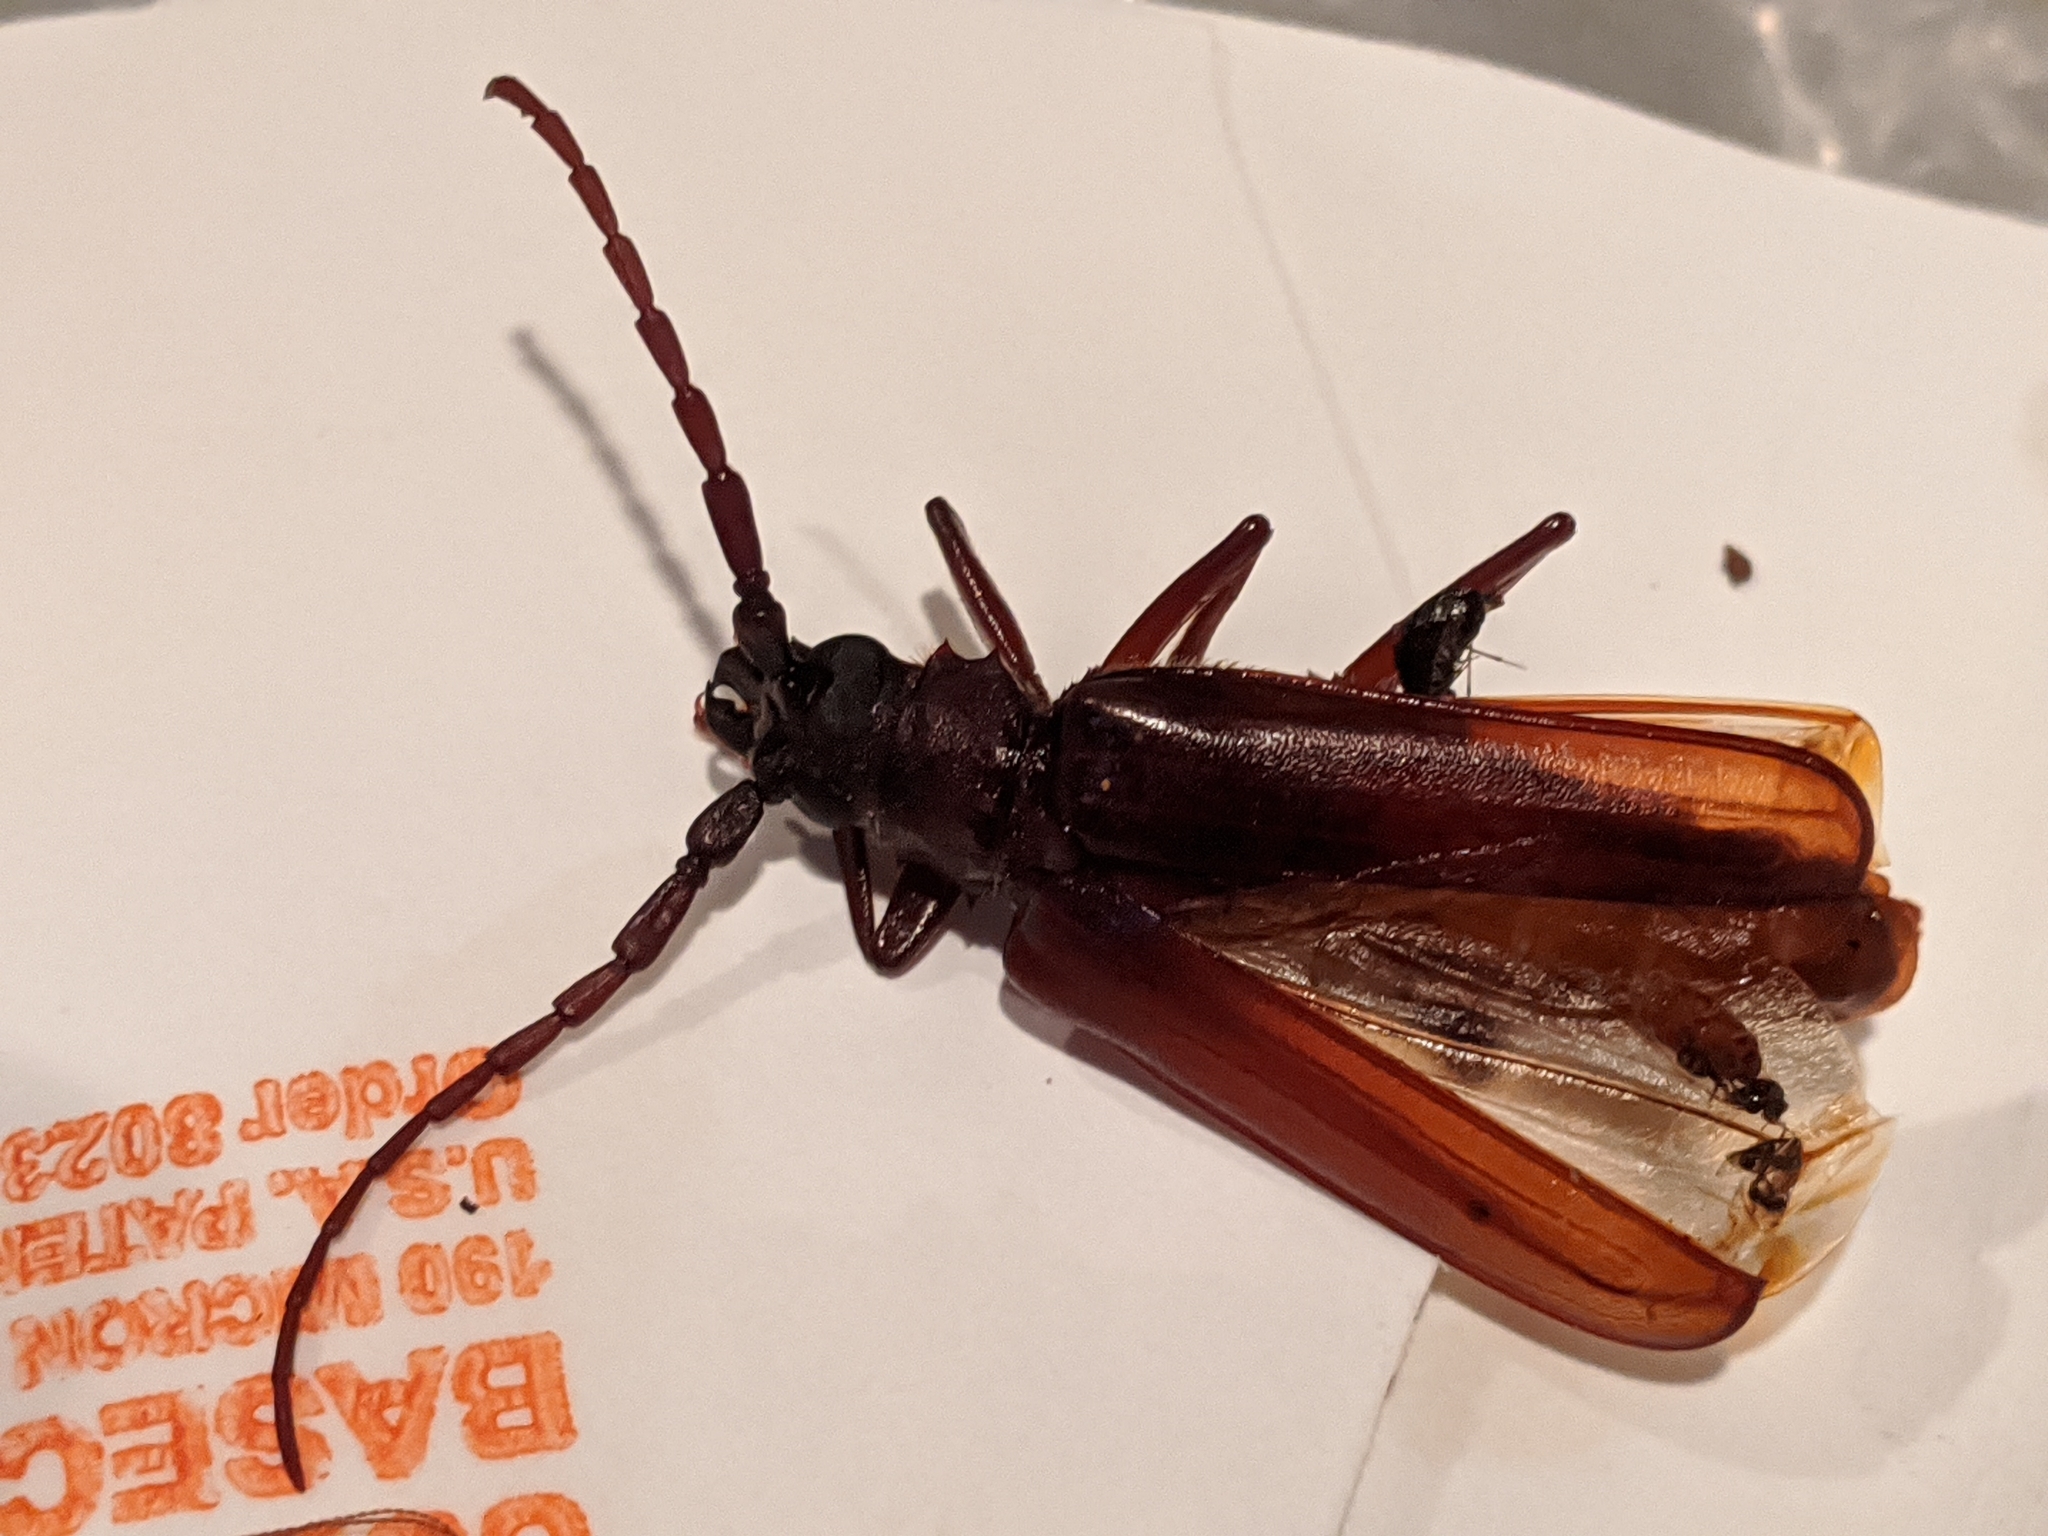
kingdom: Animalia
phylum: Arthropoda
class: Insecta
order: Coleoptera
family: Cerambycidae
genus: Orthosoma
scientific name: Orthosoma brunneum
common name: Brown prionid beetle
